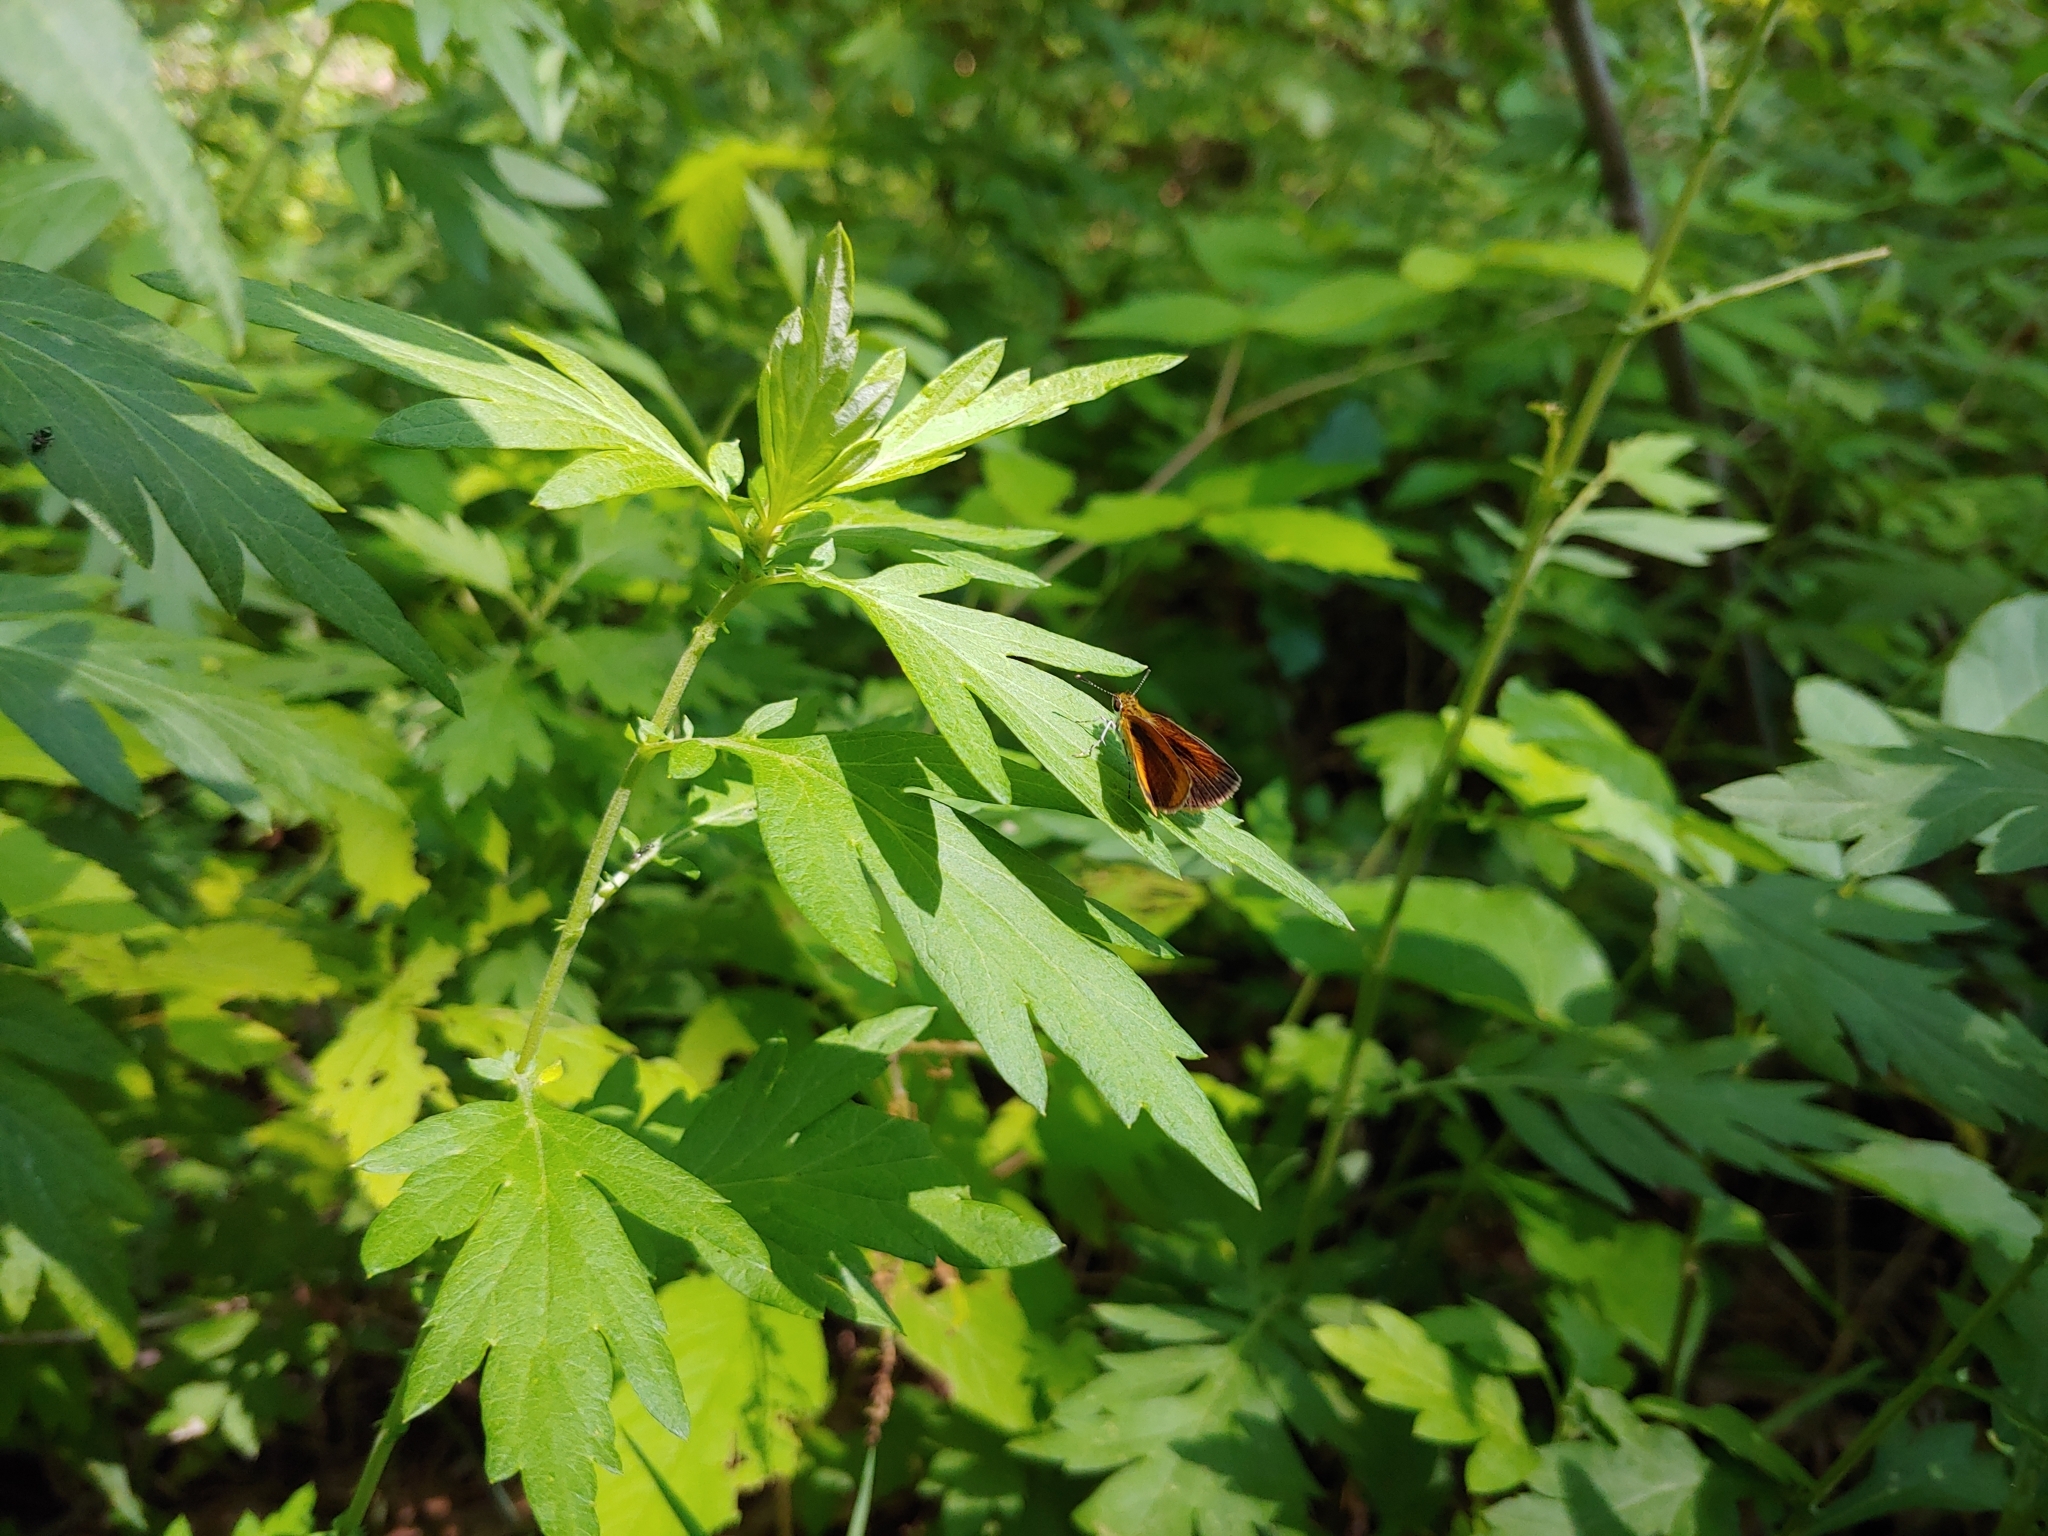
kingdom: Animalia
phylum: Arthropoda
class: Insecta
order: Lepidoptera
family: Hesperiidae
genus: Ancyloxypha
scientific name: Ancyloxypha numitor
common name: Least skipper
